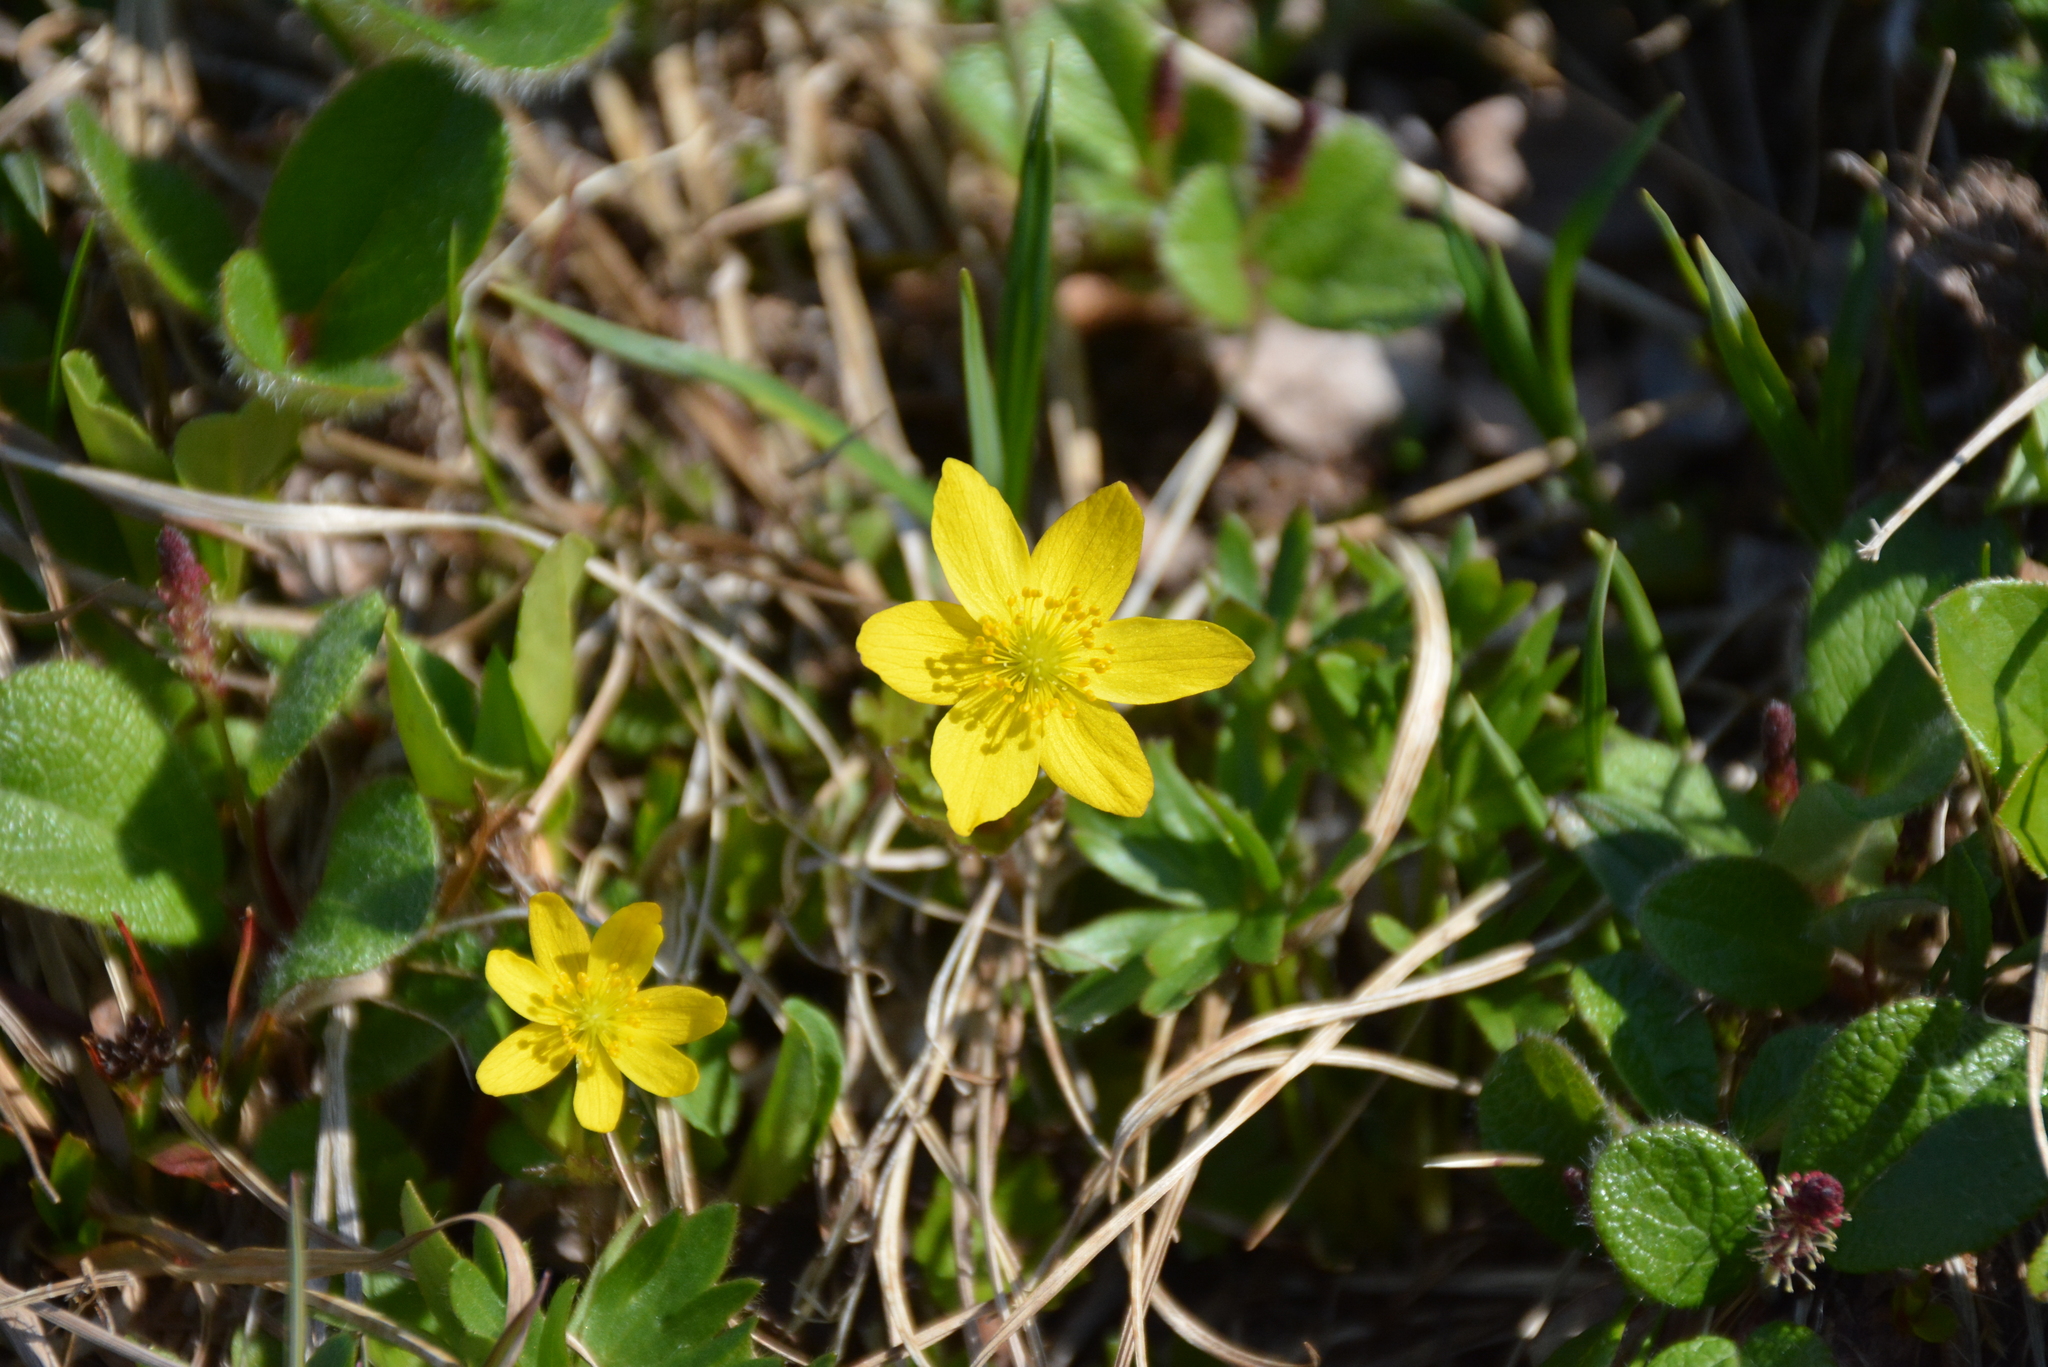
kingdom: Plantae
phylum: Tracheophyta
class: Magnoliopsida
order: Ranunculales
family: Ranunculaceae
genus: Anemonastrum
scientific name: Anemonastrum richardsonii
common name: Richardson's anemone
